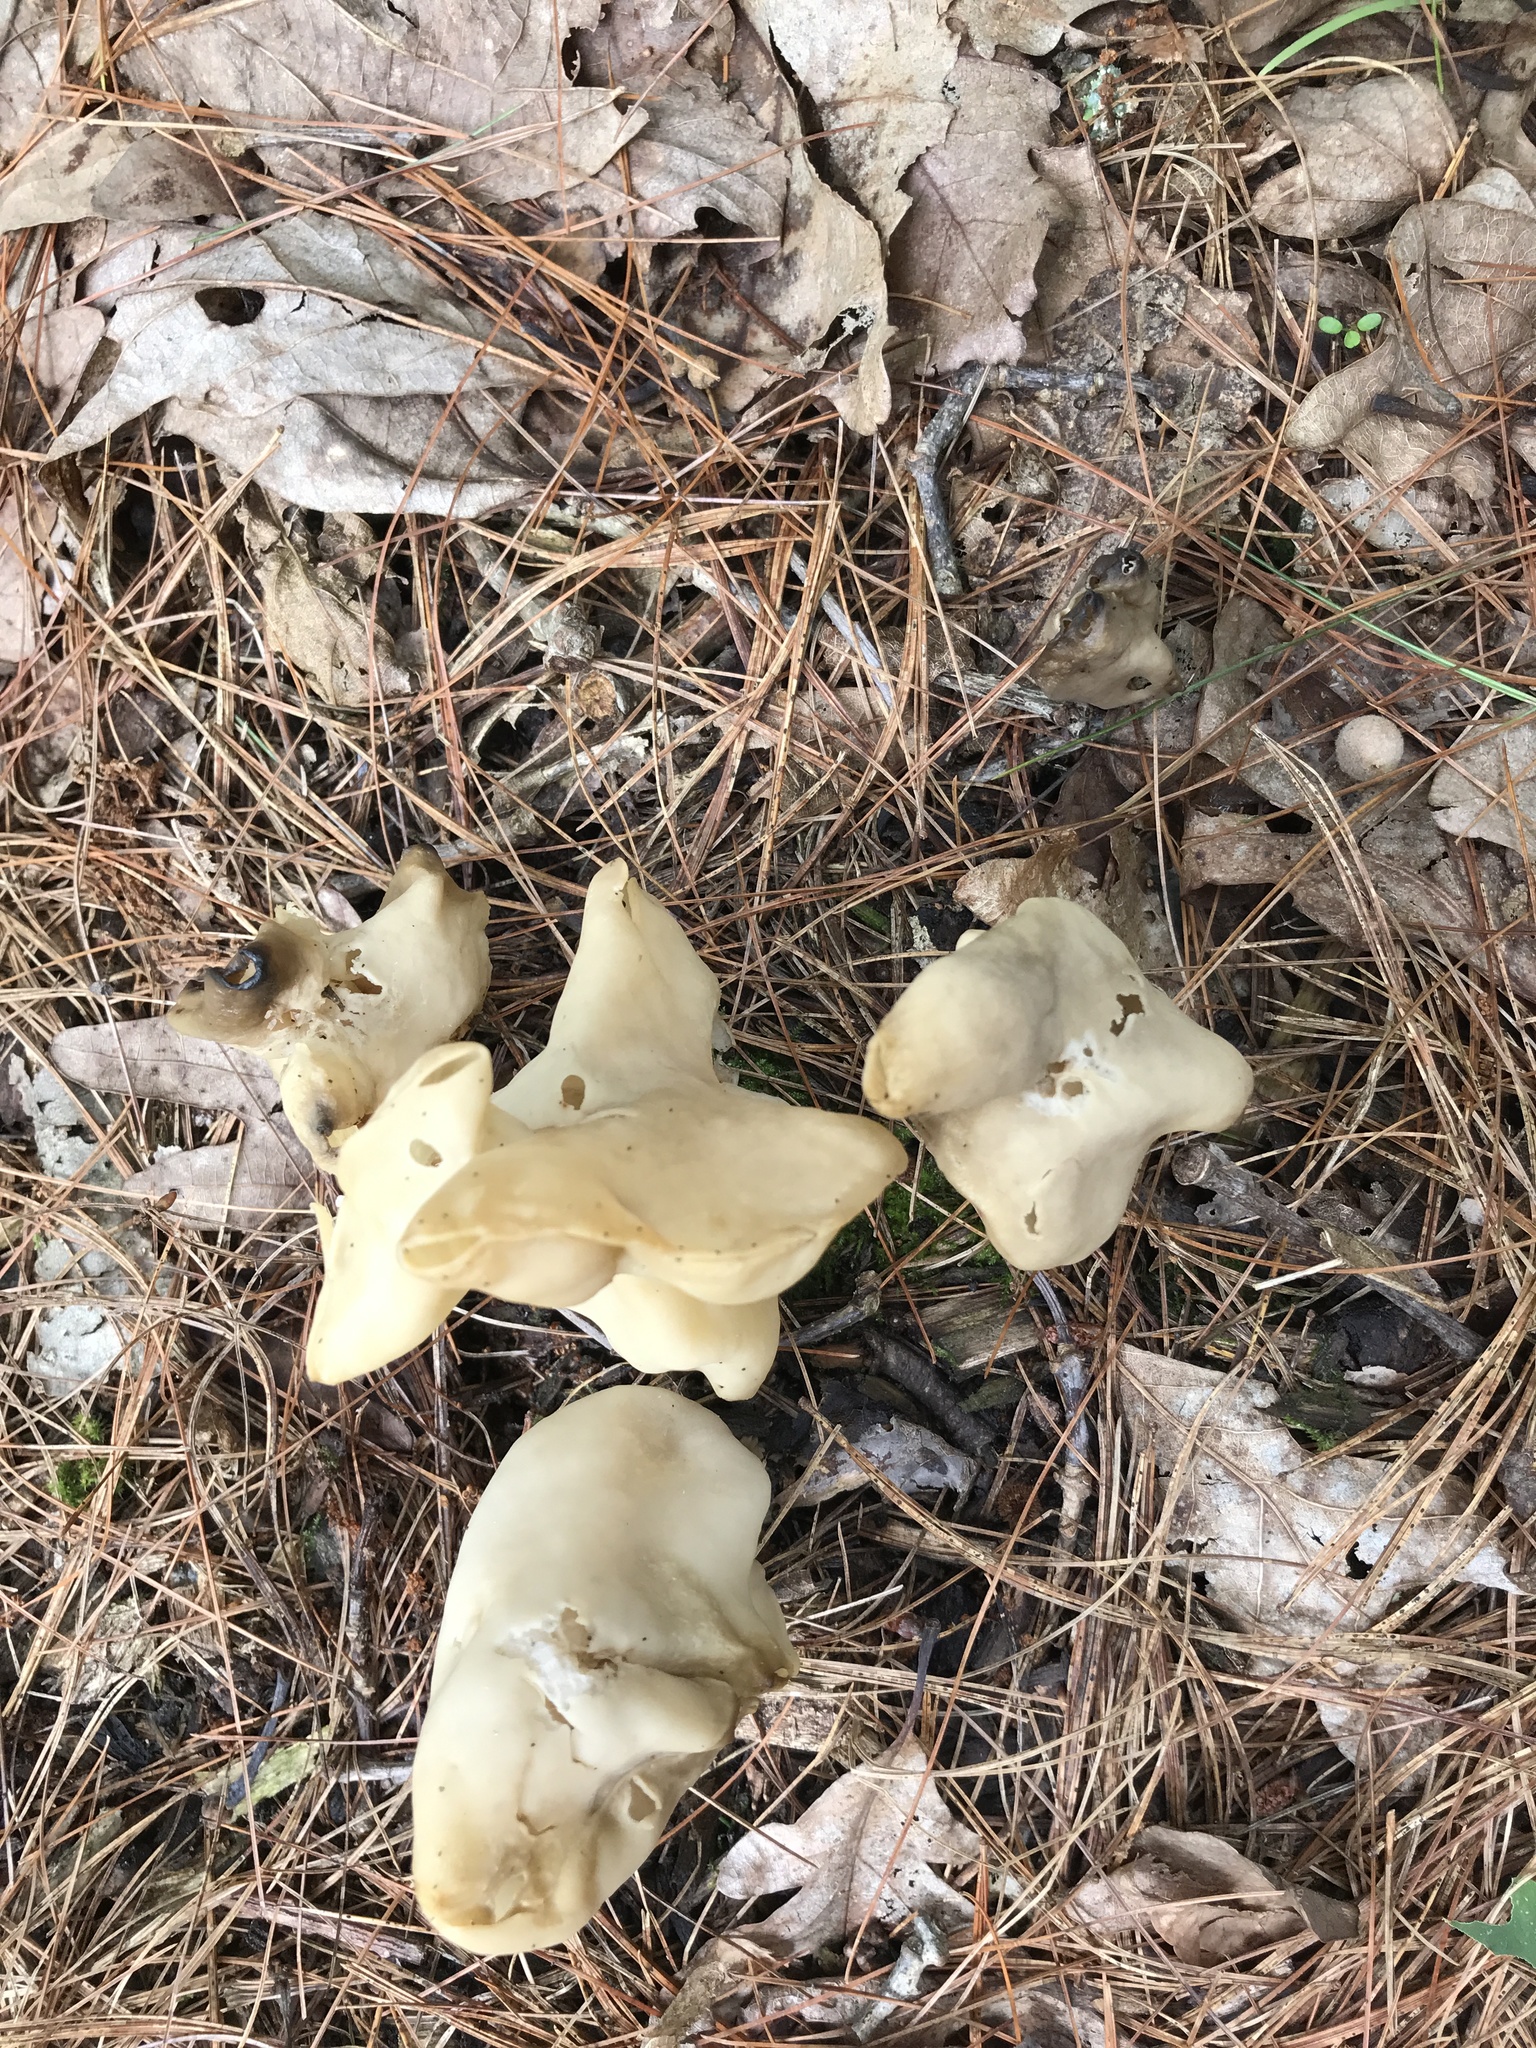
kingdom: Fungi
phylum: Ascomycota
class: Pezizomycetes
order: Pezizales
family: Helvellaceae
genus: Helvella
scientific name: Helvella crispa
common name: White saddle
